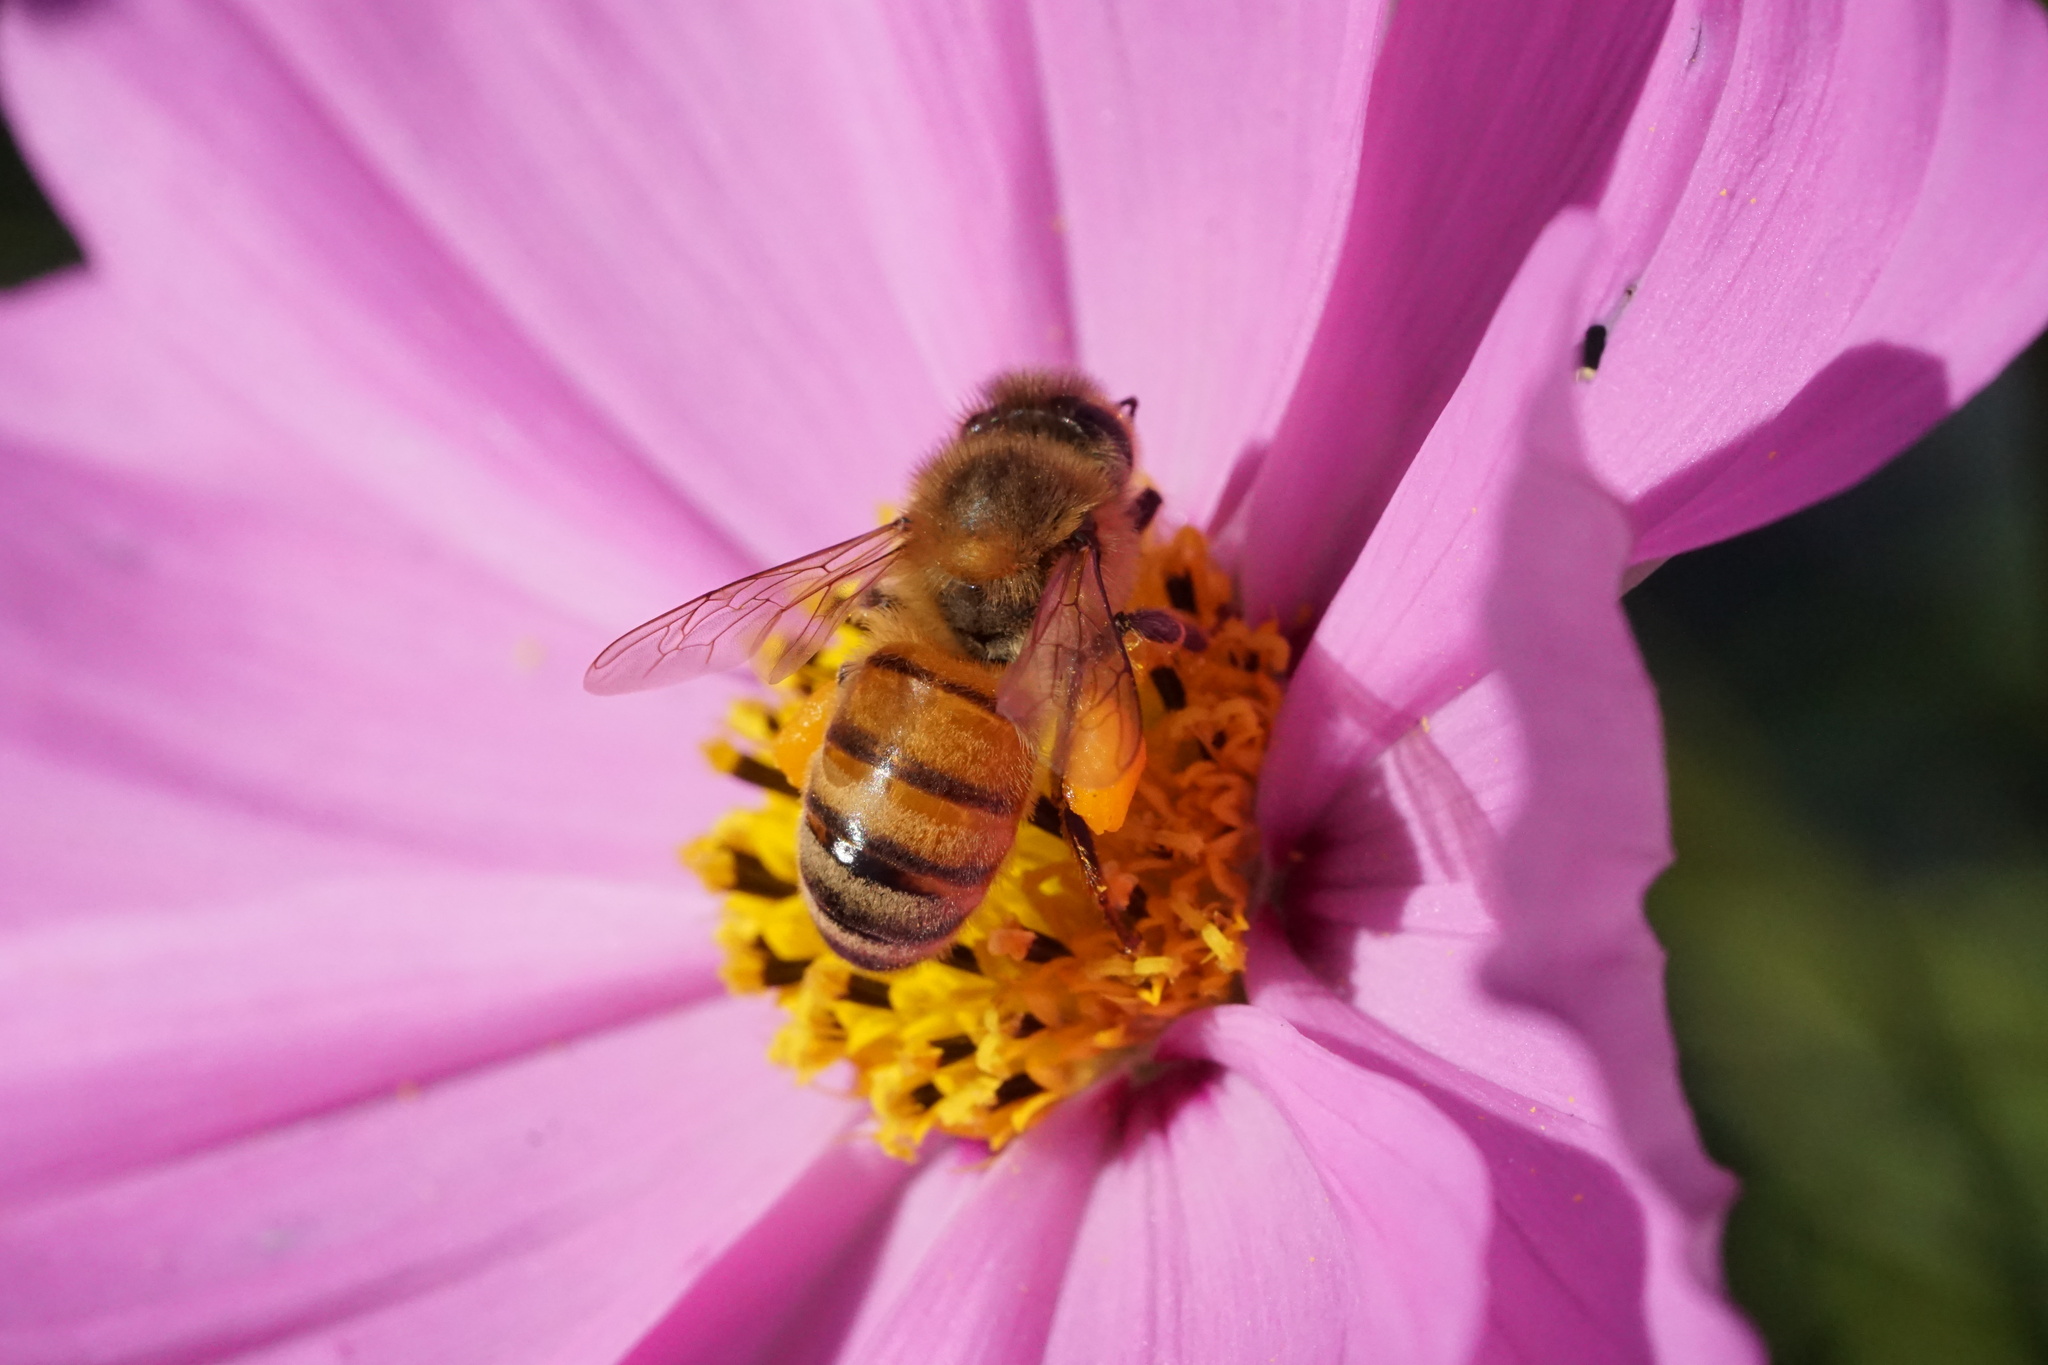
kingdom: Animalia
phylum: Arthropoda
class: Insecta
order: Hymenoptera
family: Apidae
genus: Apis
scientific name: Apis mellifera
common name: Honey bee
